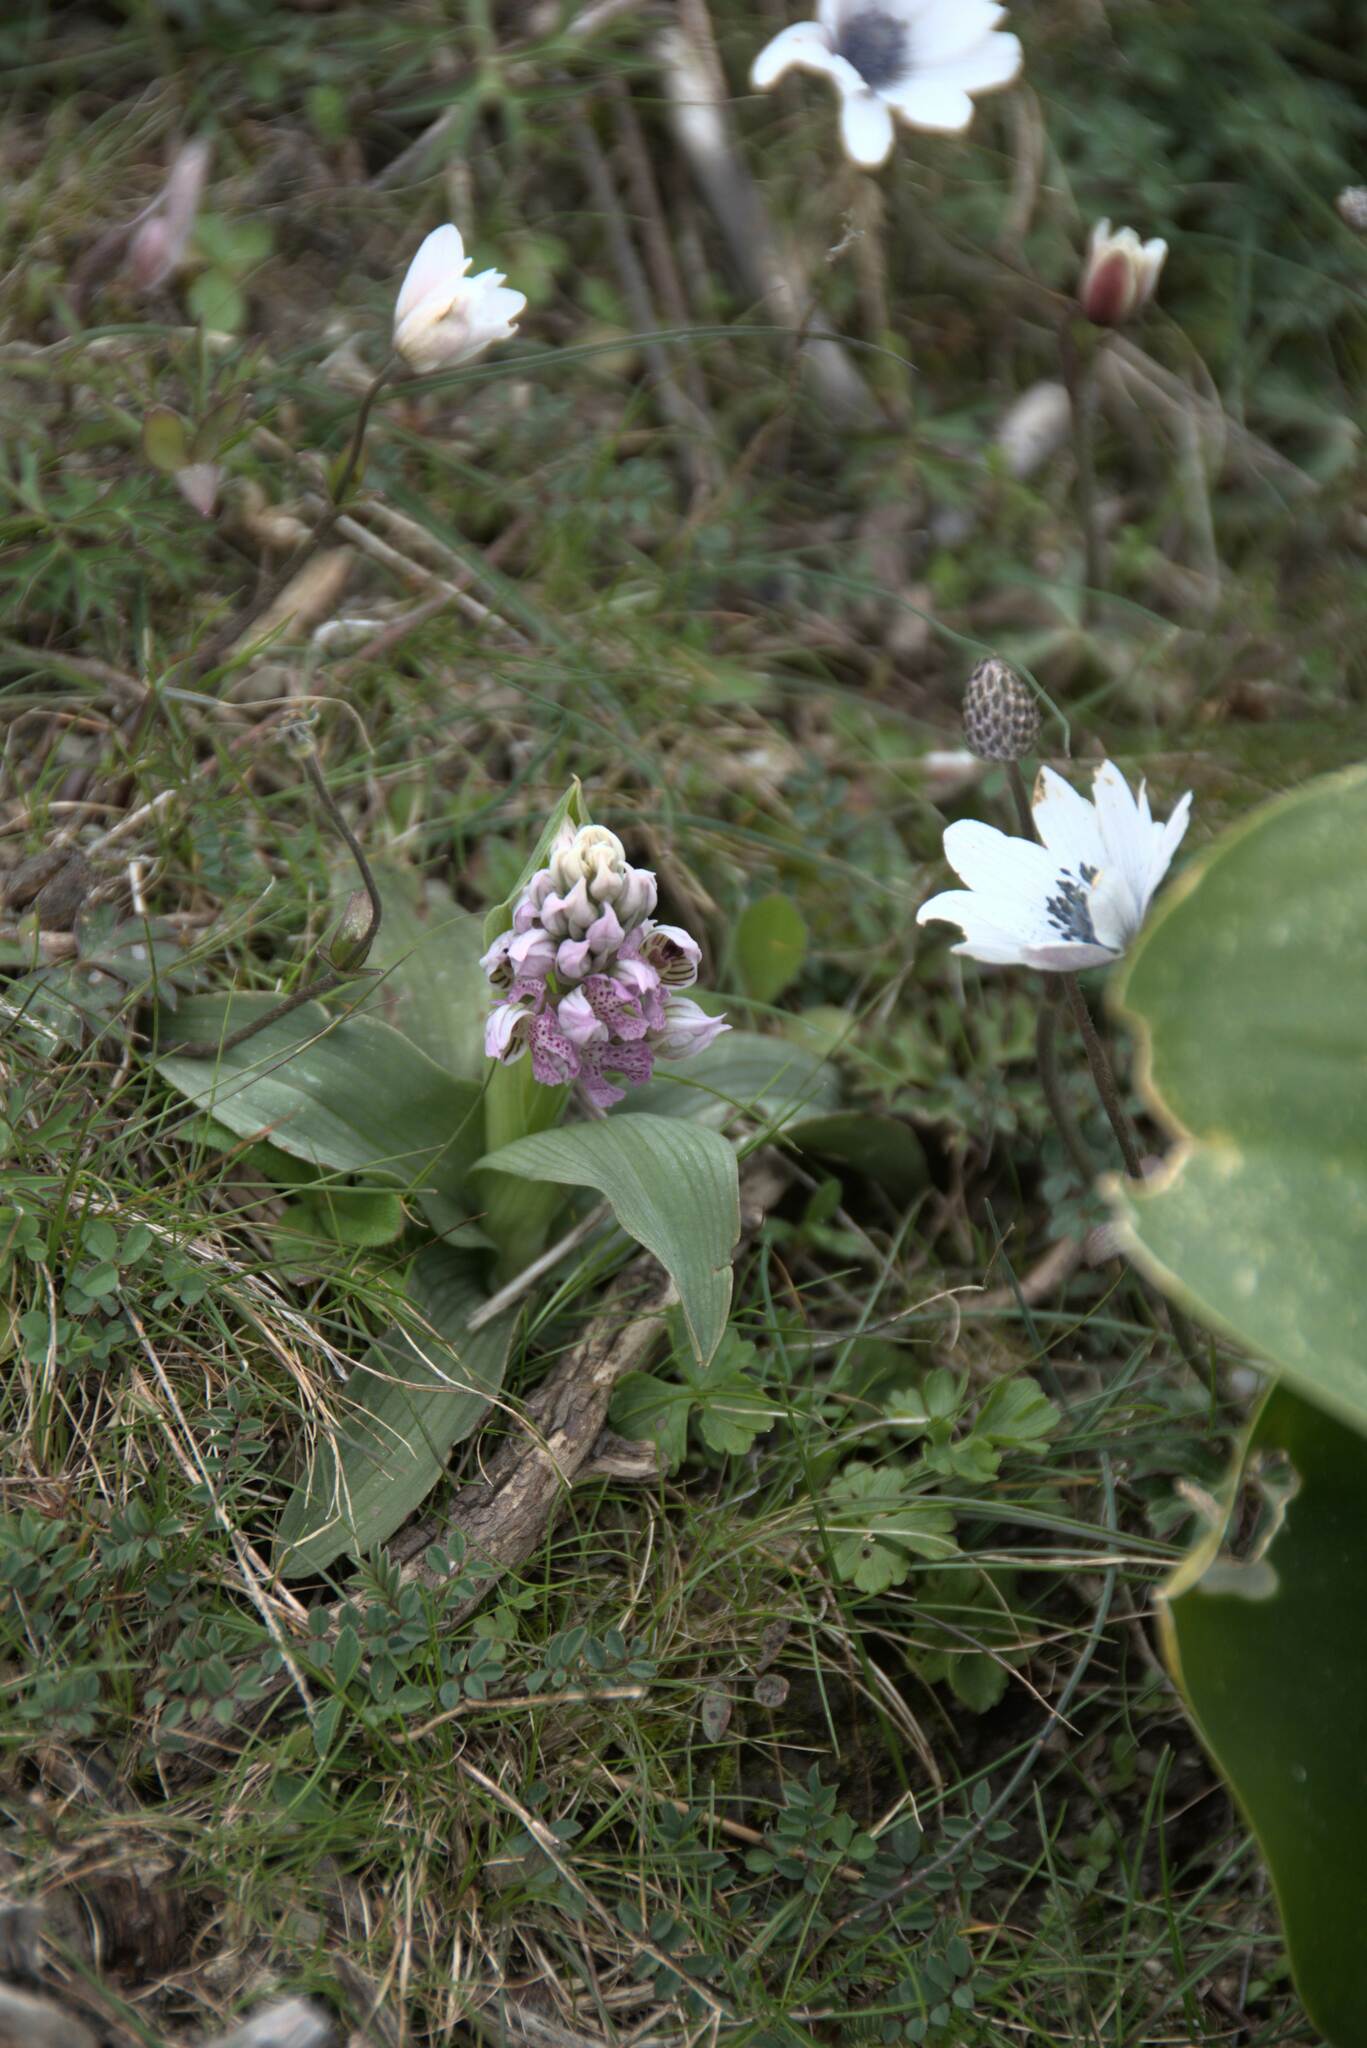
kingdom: Plantae
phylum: Tracheophyta
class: Liliopsida
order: Asparagales
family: Orchidaceae
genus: Neotinea
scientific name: Neotinea lactea
